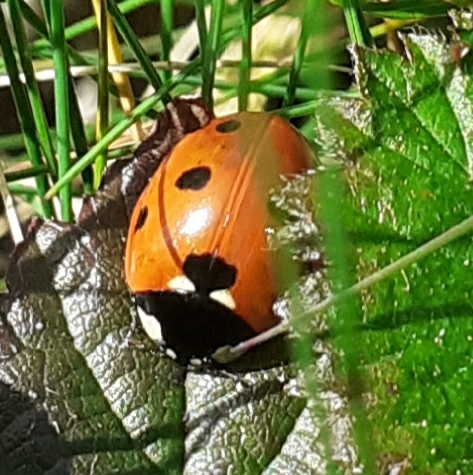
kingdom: Animalia
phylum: Arthropoda
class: Insecta
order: Coleoptera
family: Coccinellidae
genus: Coccinella
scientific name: Coccinella septempunctata
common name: Sevenspotted lady beetle
